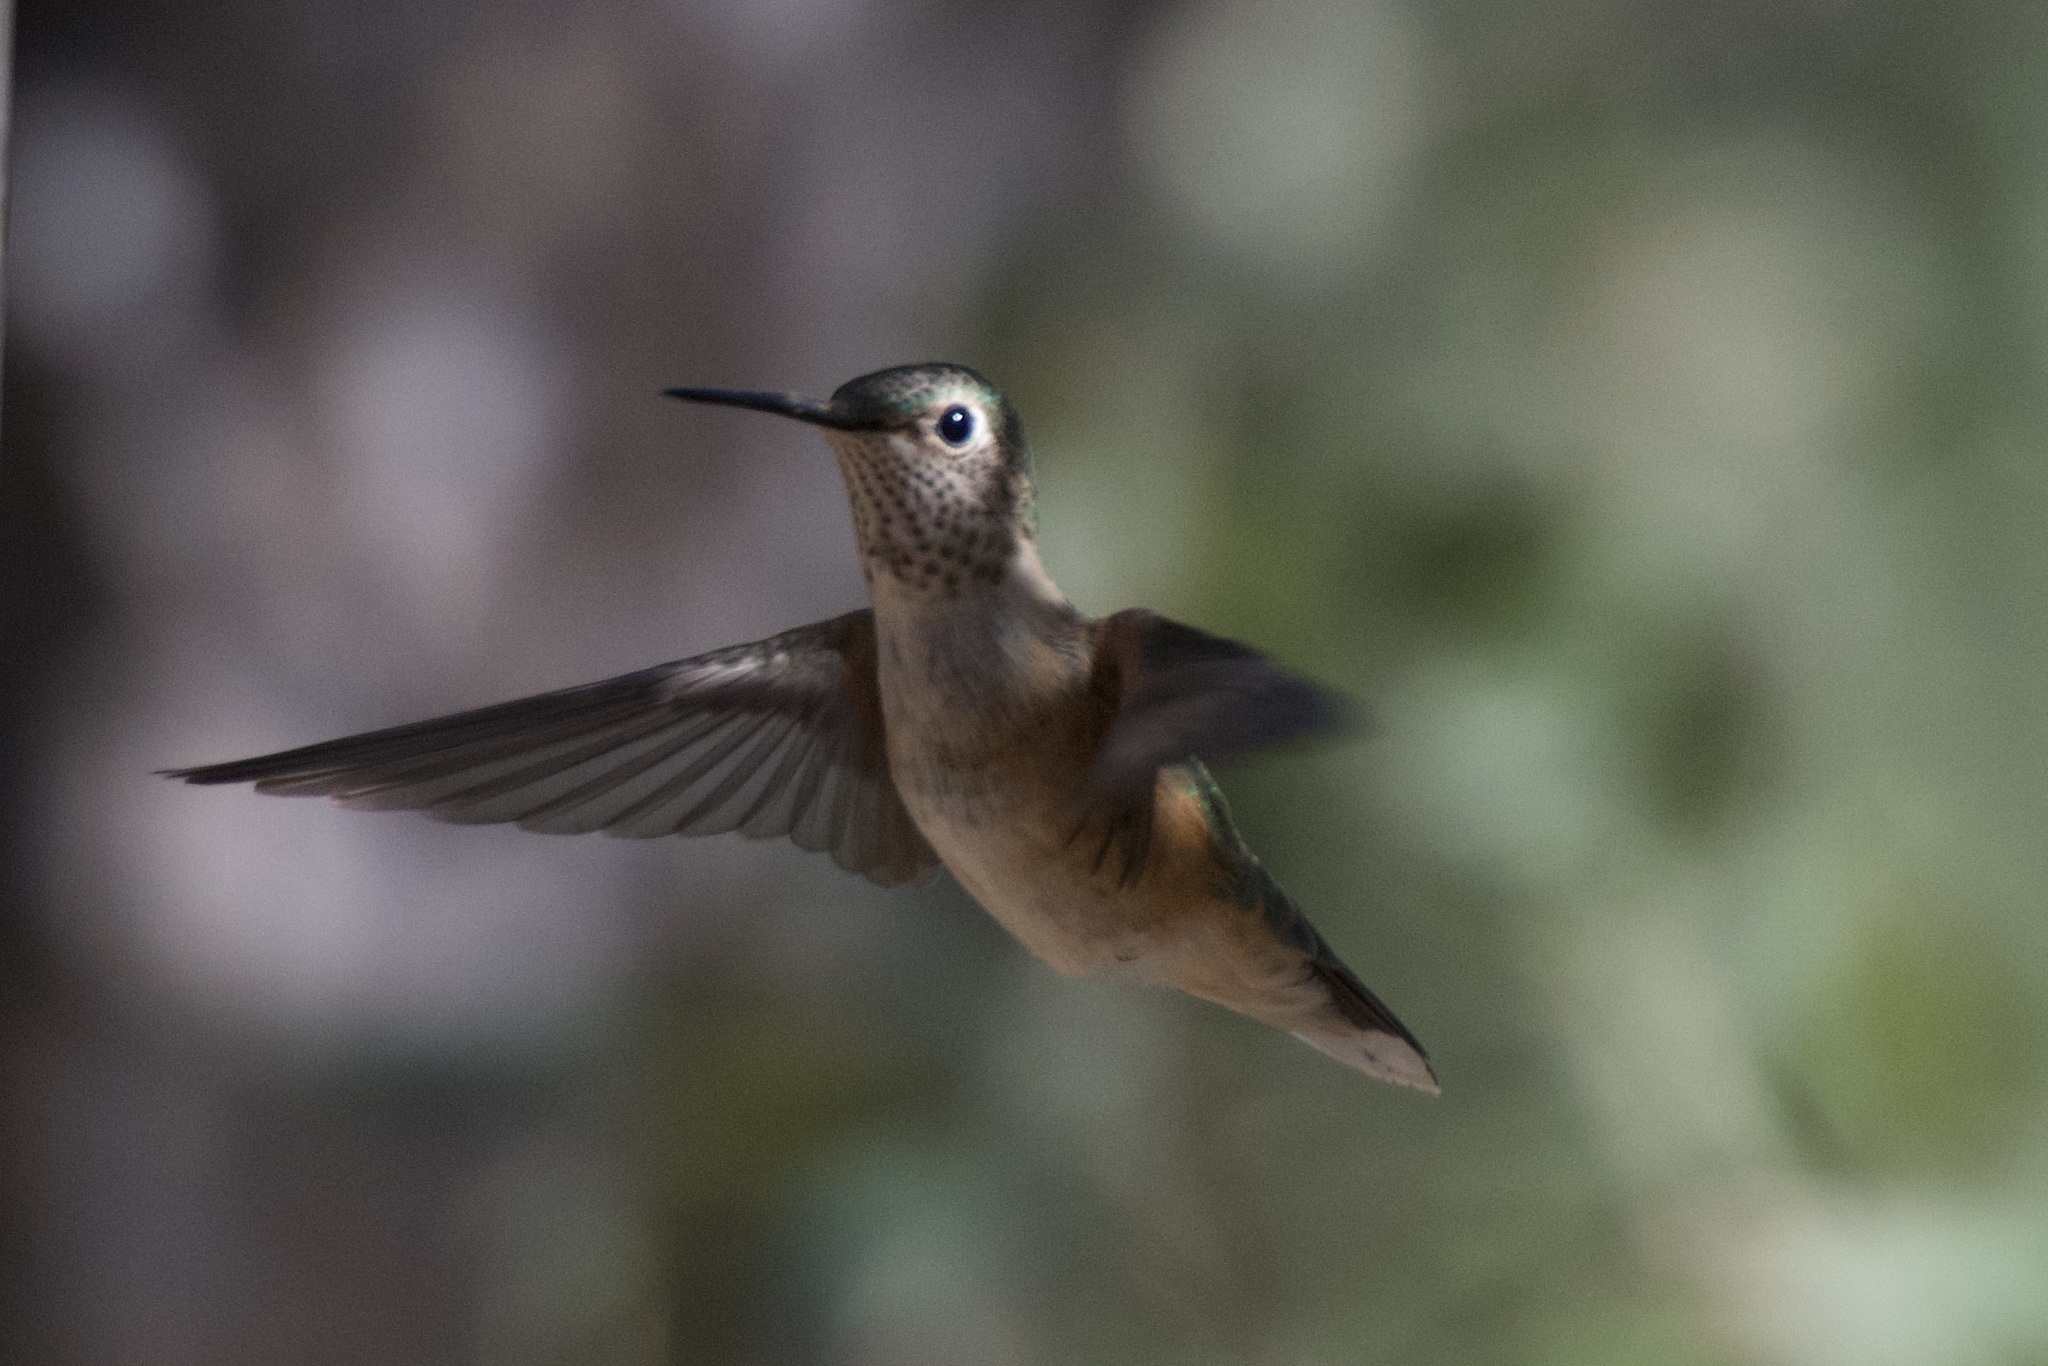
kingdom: Animalia
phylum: Chordata
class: Aves
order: Apodiformes
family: Trochilidae
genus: Selasphorus
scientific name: Selasphorus platycercus
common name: Broad-tailed hummingbird
